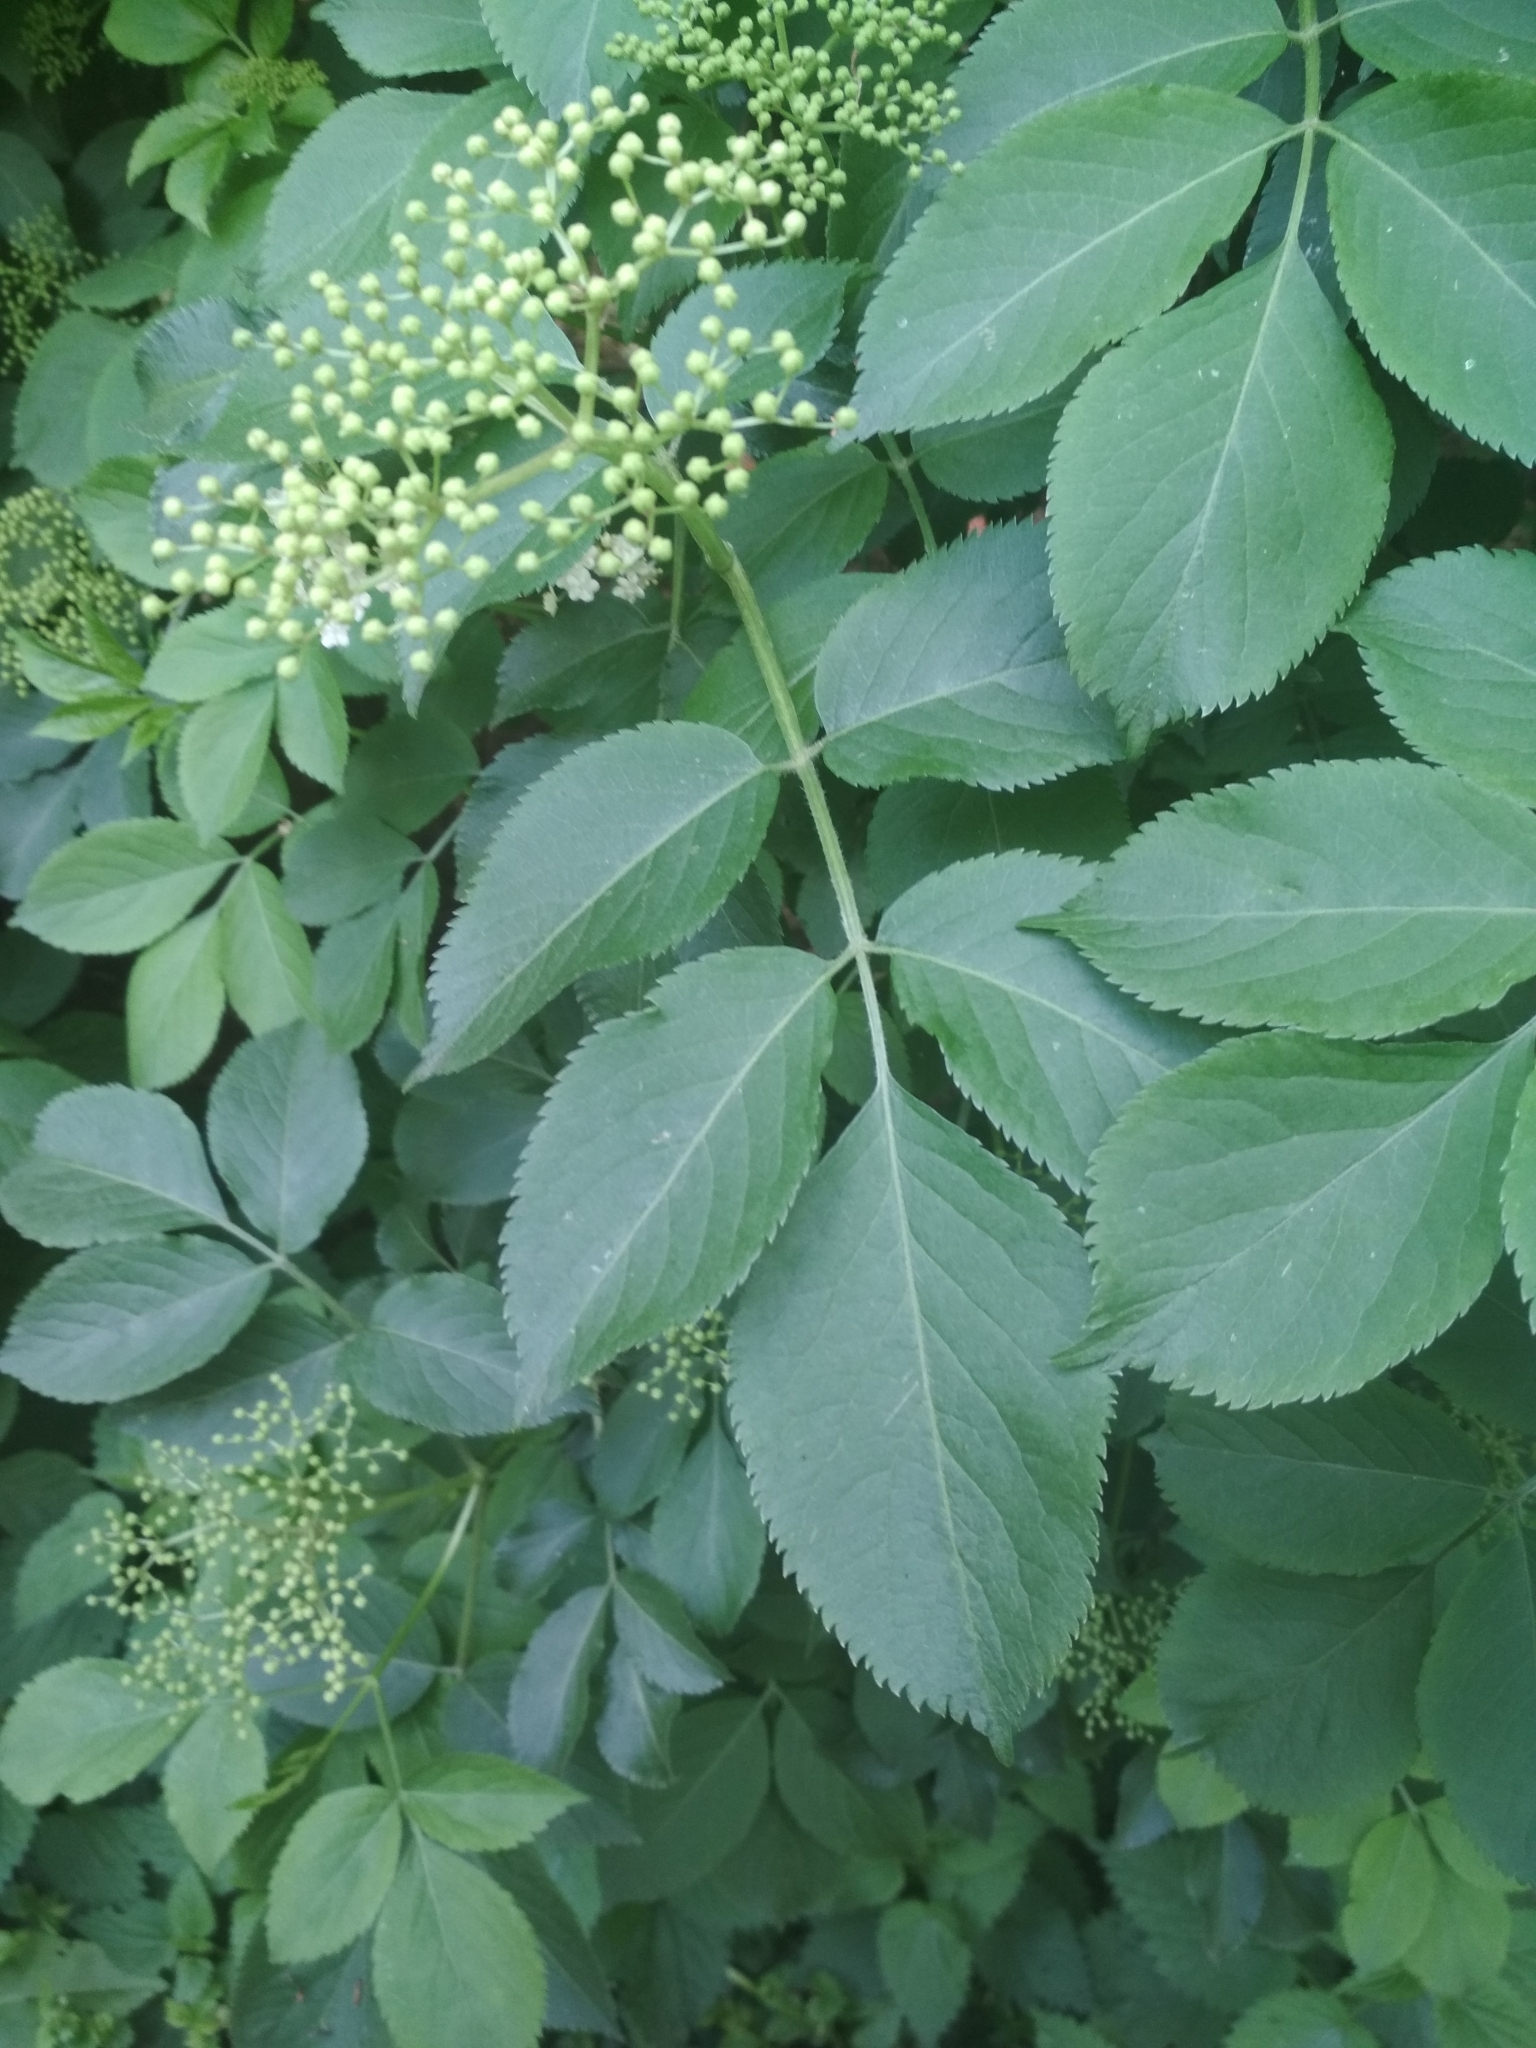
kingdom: Plantae
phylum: Tracheophyta
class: Magnoliopsida
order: Dipsacales
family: Viburnaceae
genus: Sambucus
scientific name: Sambucus nigra
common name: Elder
